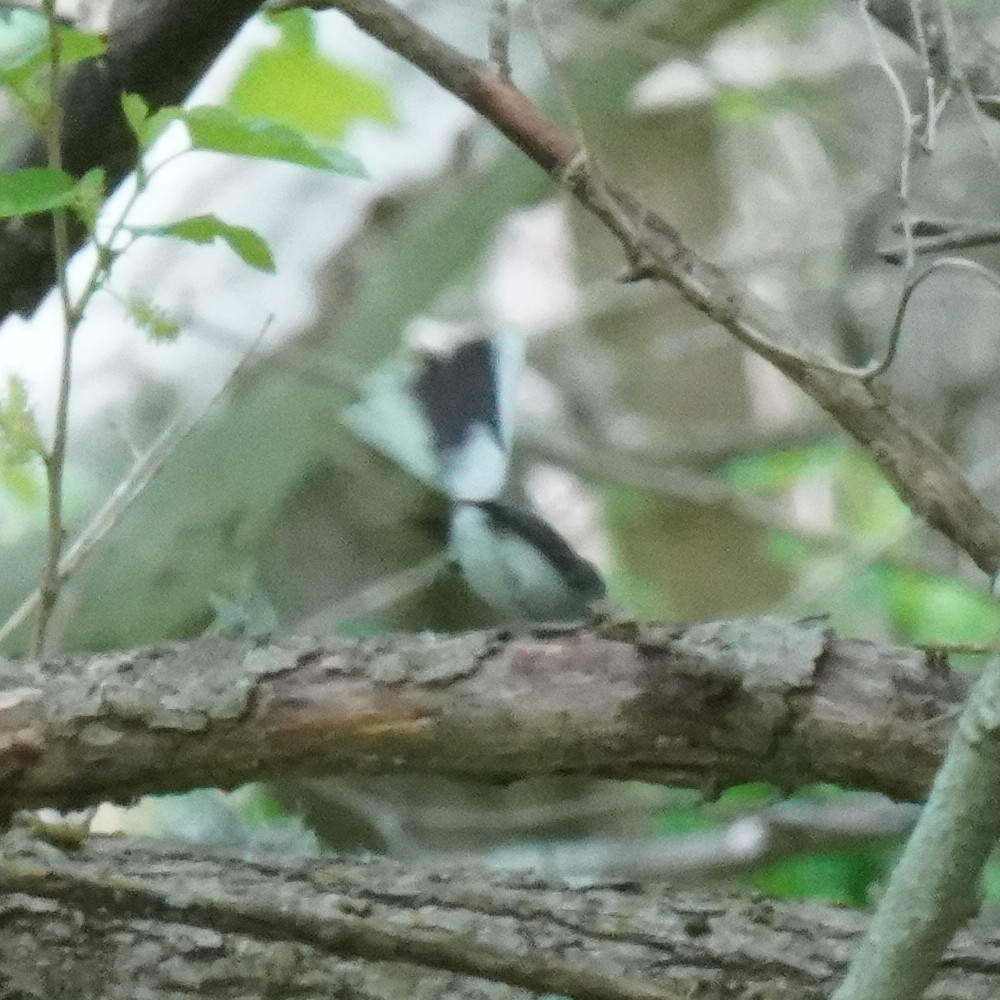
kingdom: Animalia
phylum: Chordata
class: Aves
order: Passeriformes
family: Polioptilidae
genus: Polioptila
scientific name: Polioptila caerulea
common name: Blue-gray gnatcatcher
